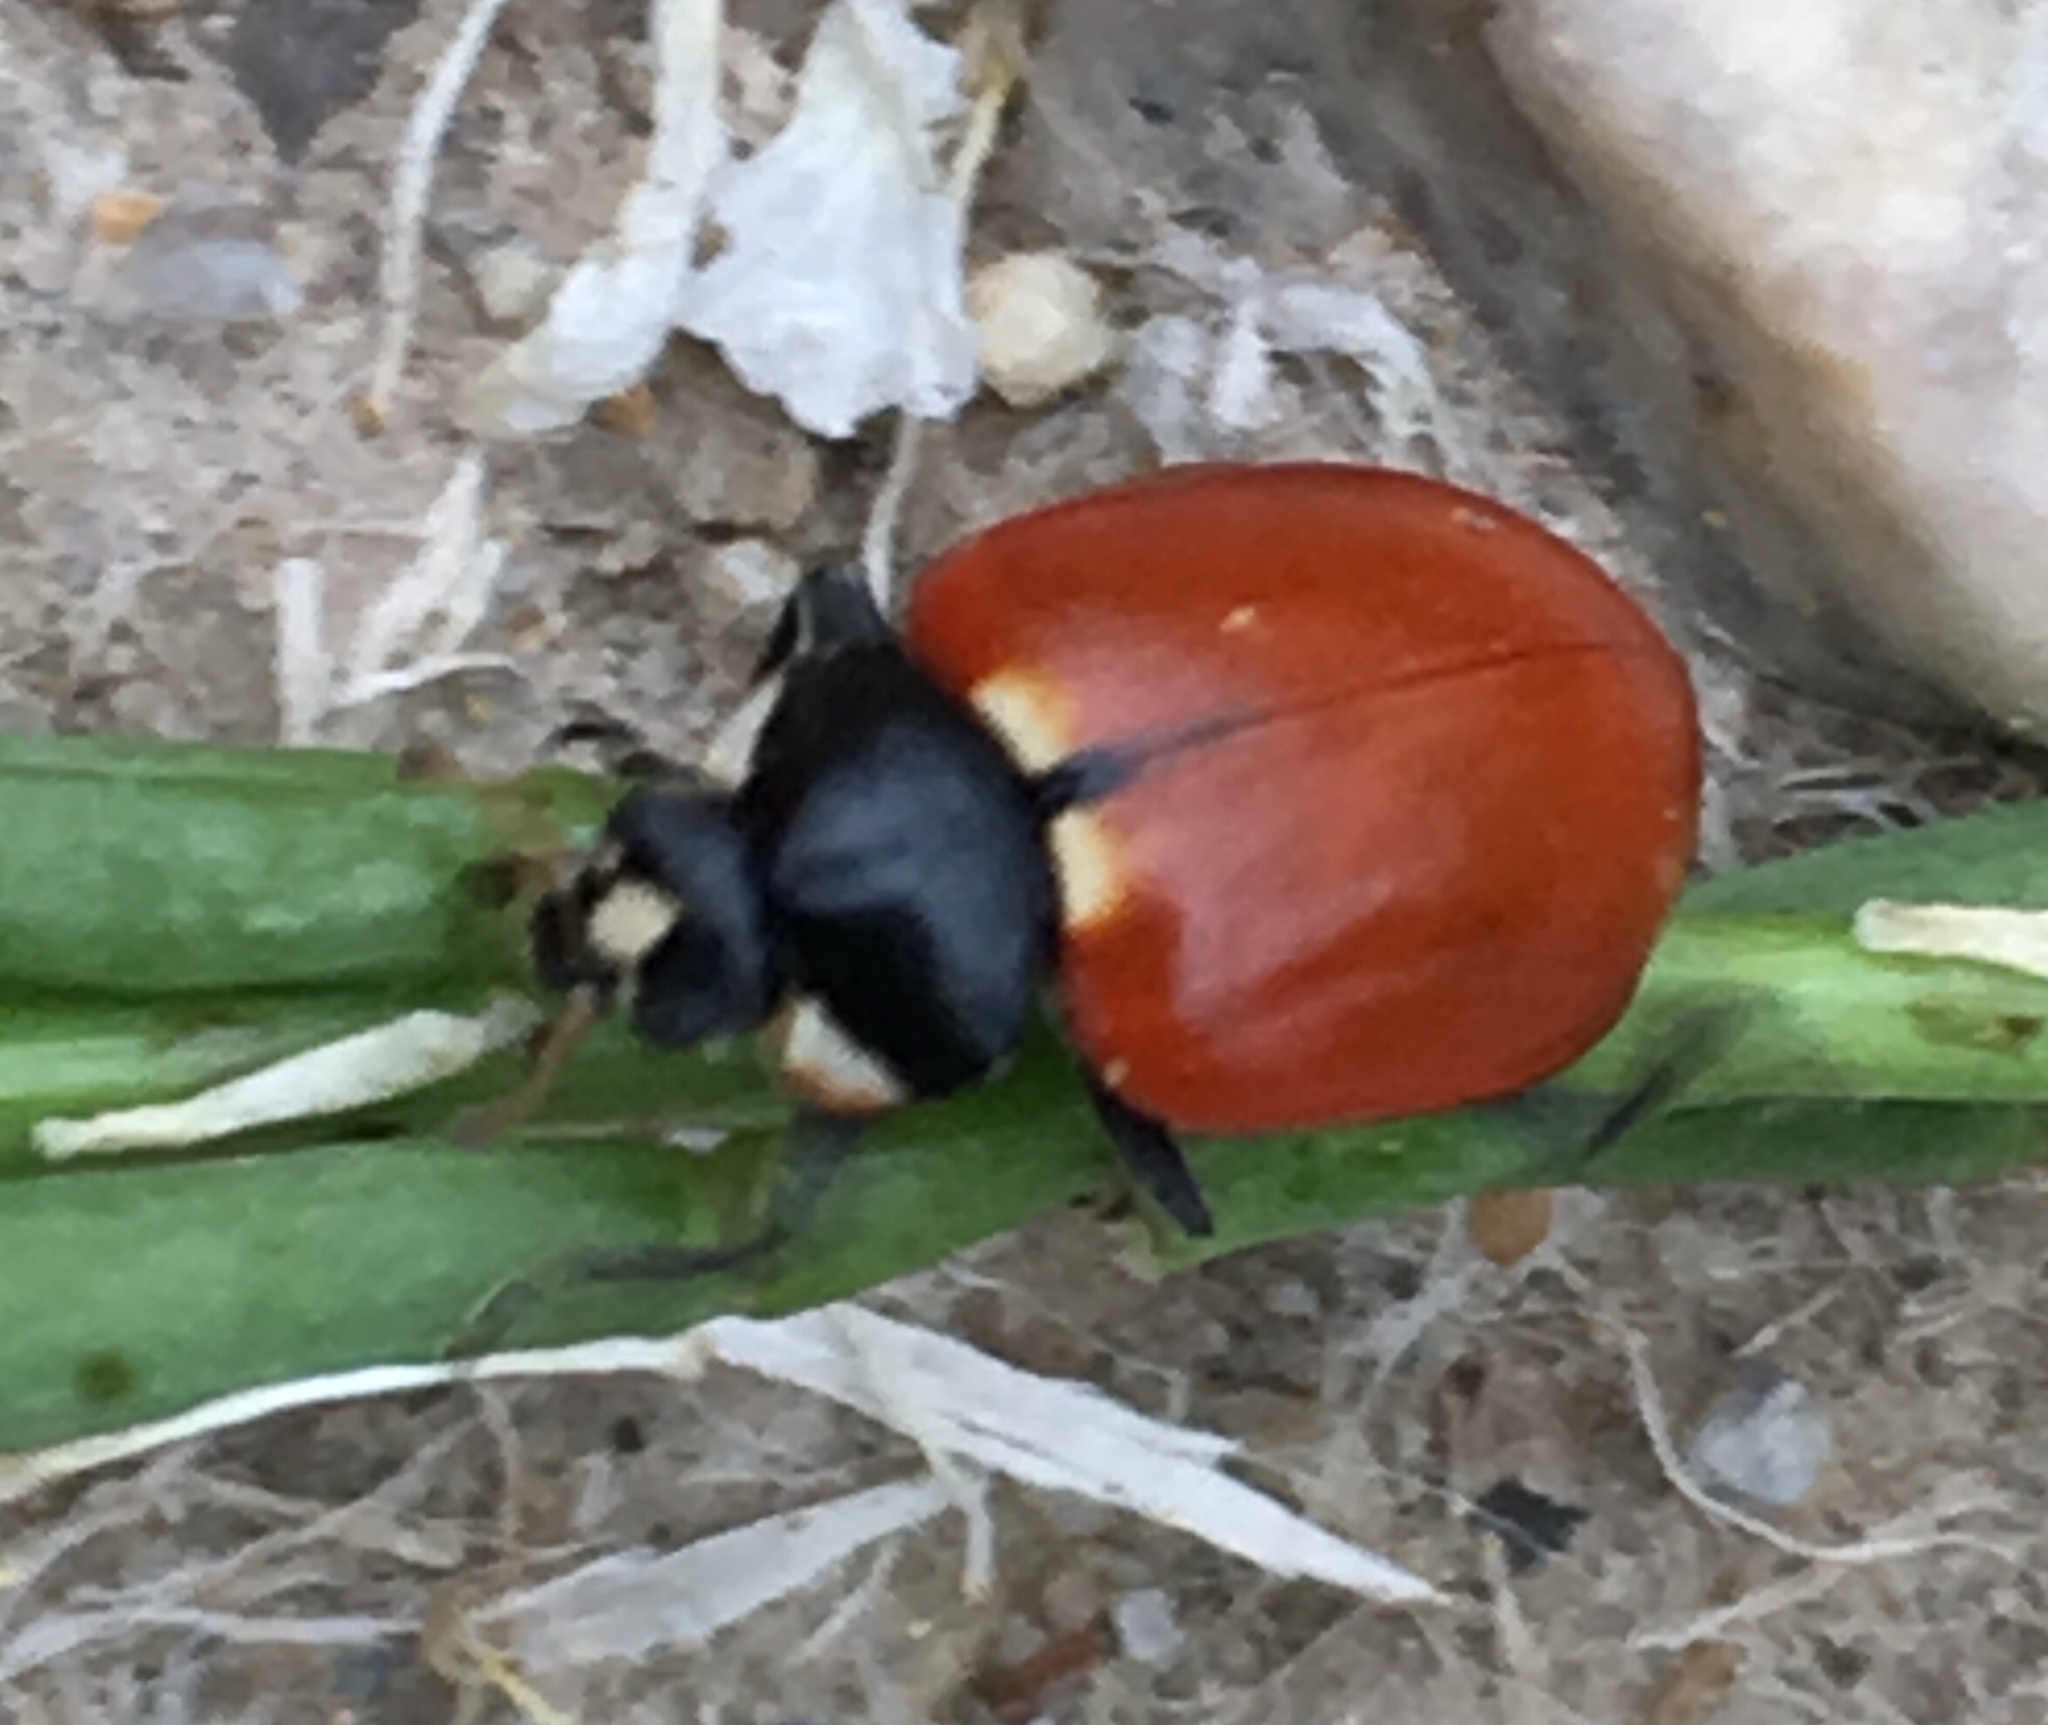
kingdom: Animalia
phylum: Arthropoda
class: Insecta
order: Coleoptera
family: Coccinellidae
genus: Hippodamia
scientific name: Hippodamia quinquesignata
